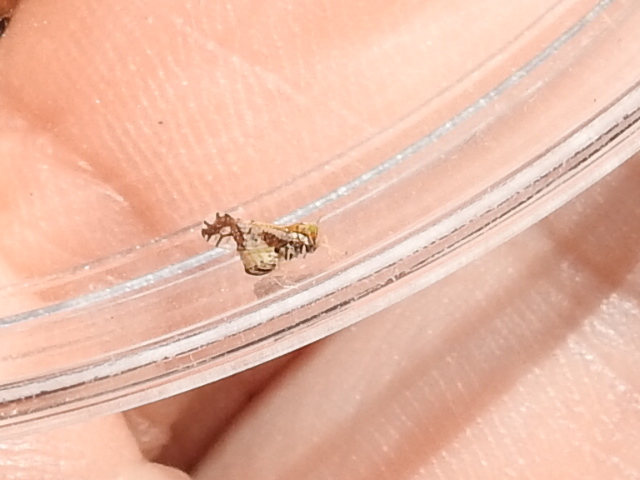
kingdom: Animalia
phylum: Arthropoda
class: Insecta
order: Hemiptera
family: Delphacidae
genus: Liburniella
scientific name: Liburniella ornata
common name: Ornate planthopper
